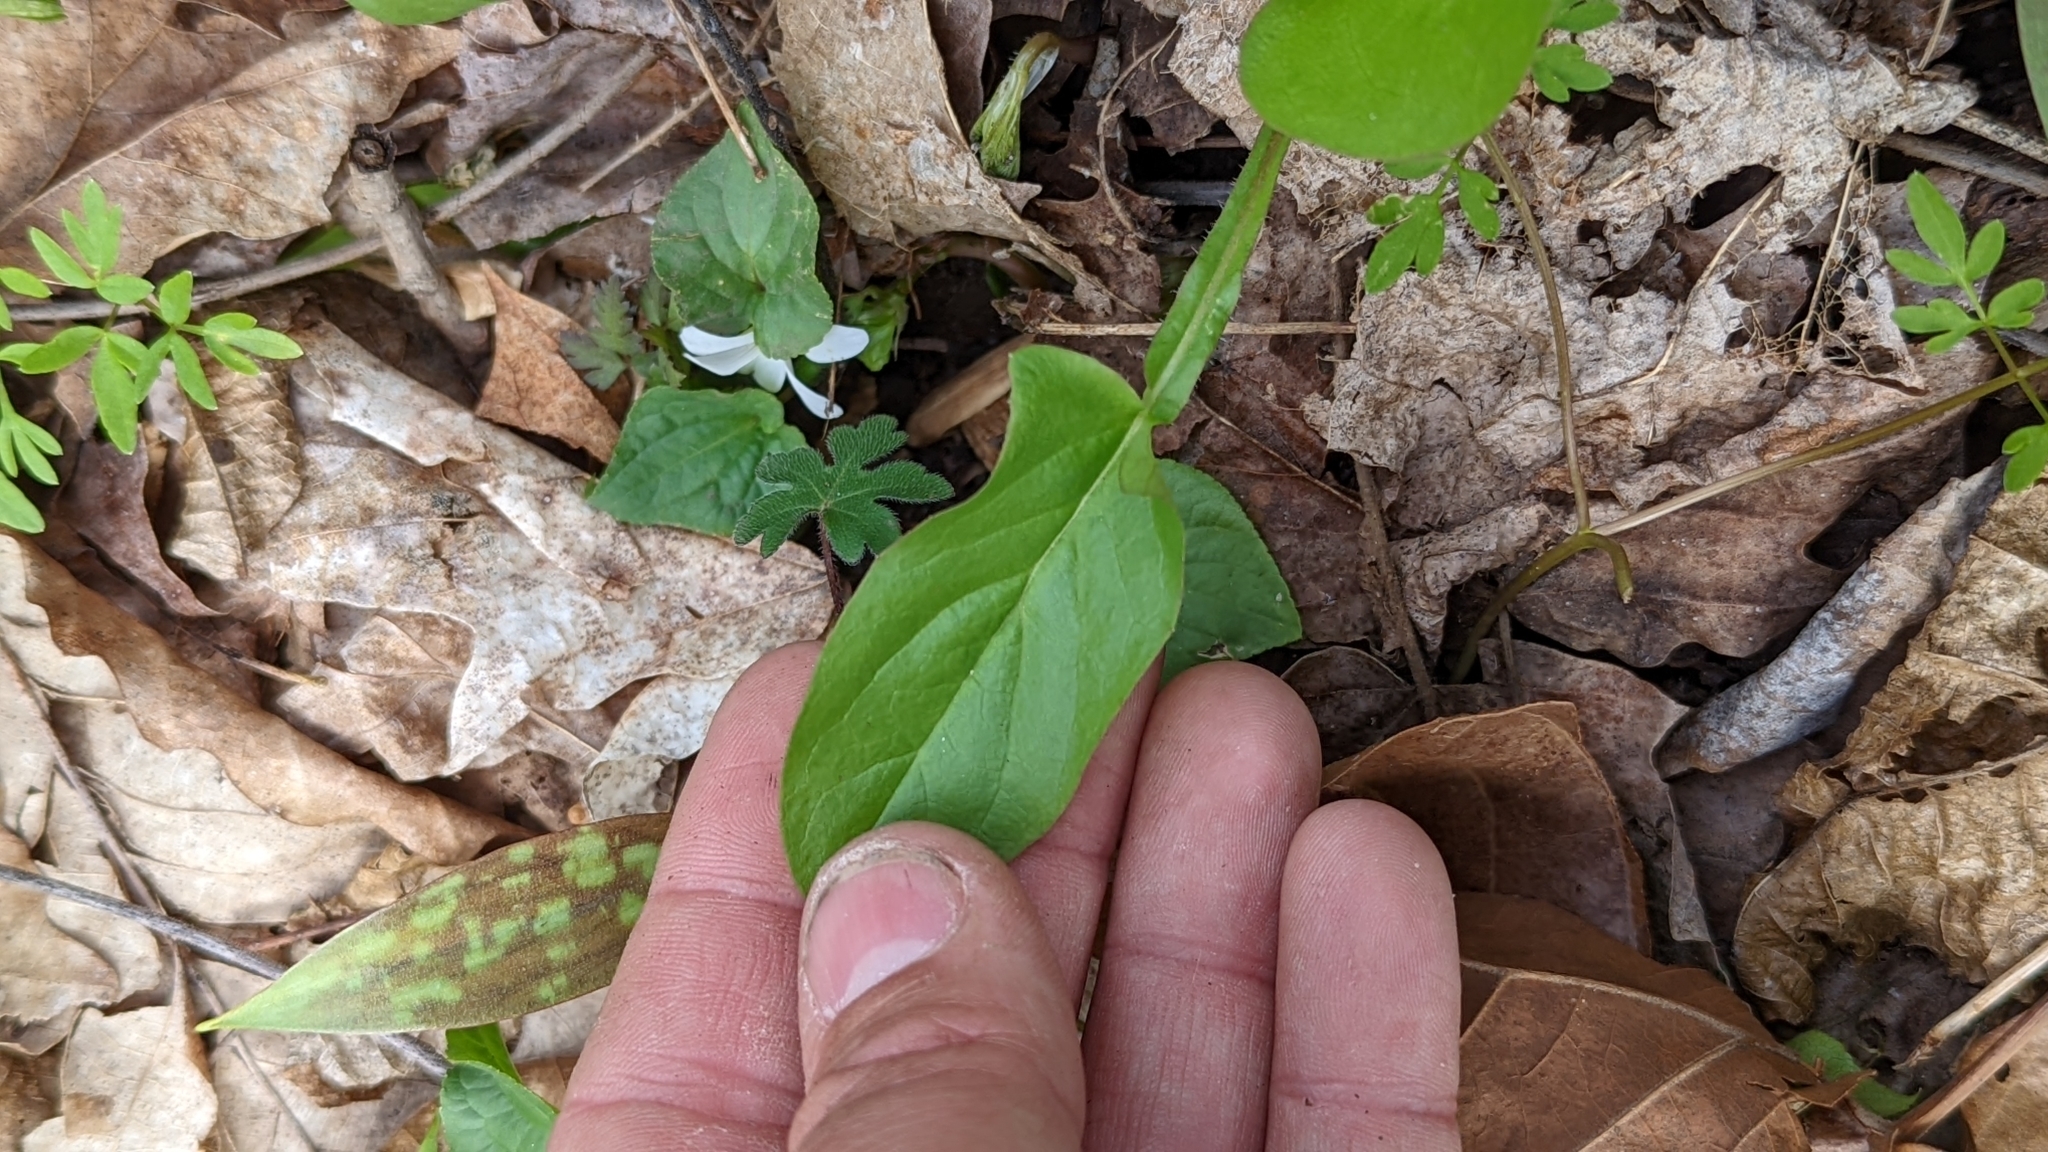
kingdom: Plantae
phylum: Tracheophyta
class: Magnoliopsida
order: Asterales
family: Asteraceae
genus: Nabalus
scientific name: Nabalus crepidineus
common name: Nodding rattlesnakeroot
